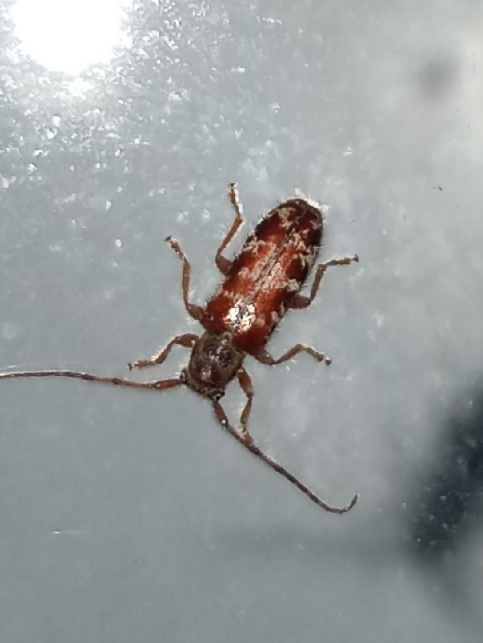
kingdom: Animalia
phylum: Arthropoda
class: Insecta
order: Coleoptera
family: Cerambycidae
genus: Eupogonius
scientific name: Eupogonius tomentosus
